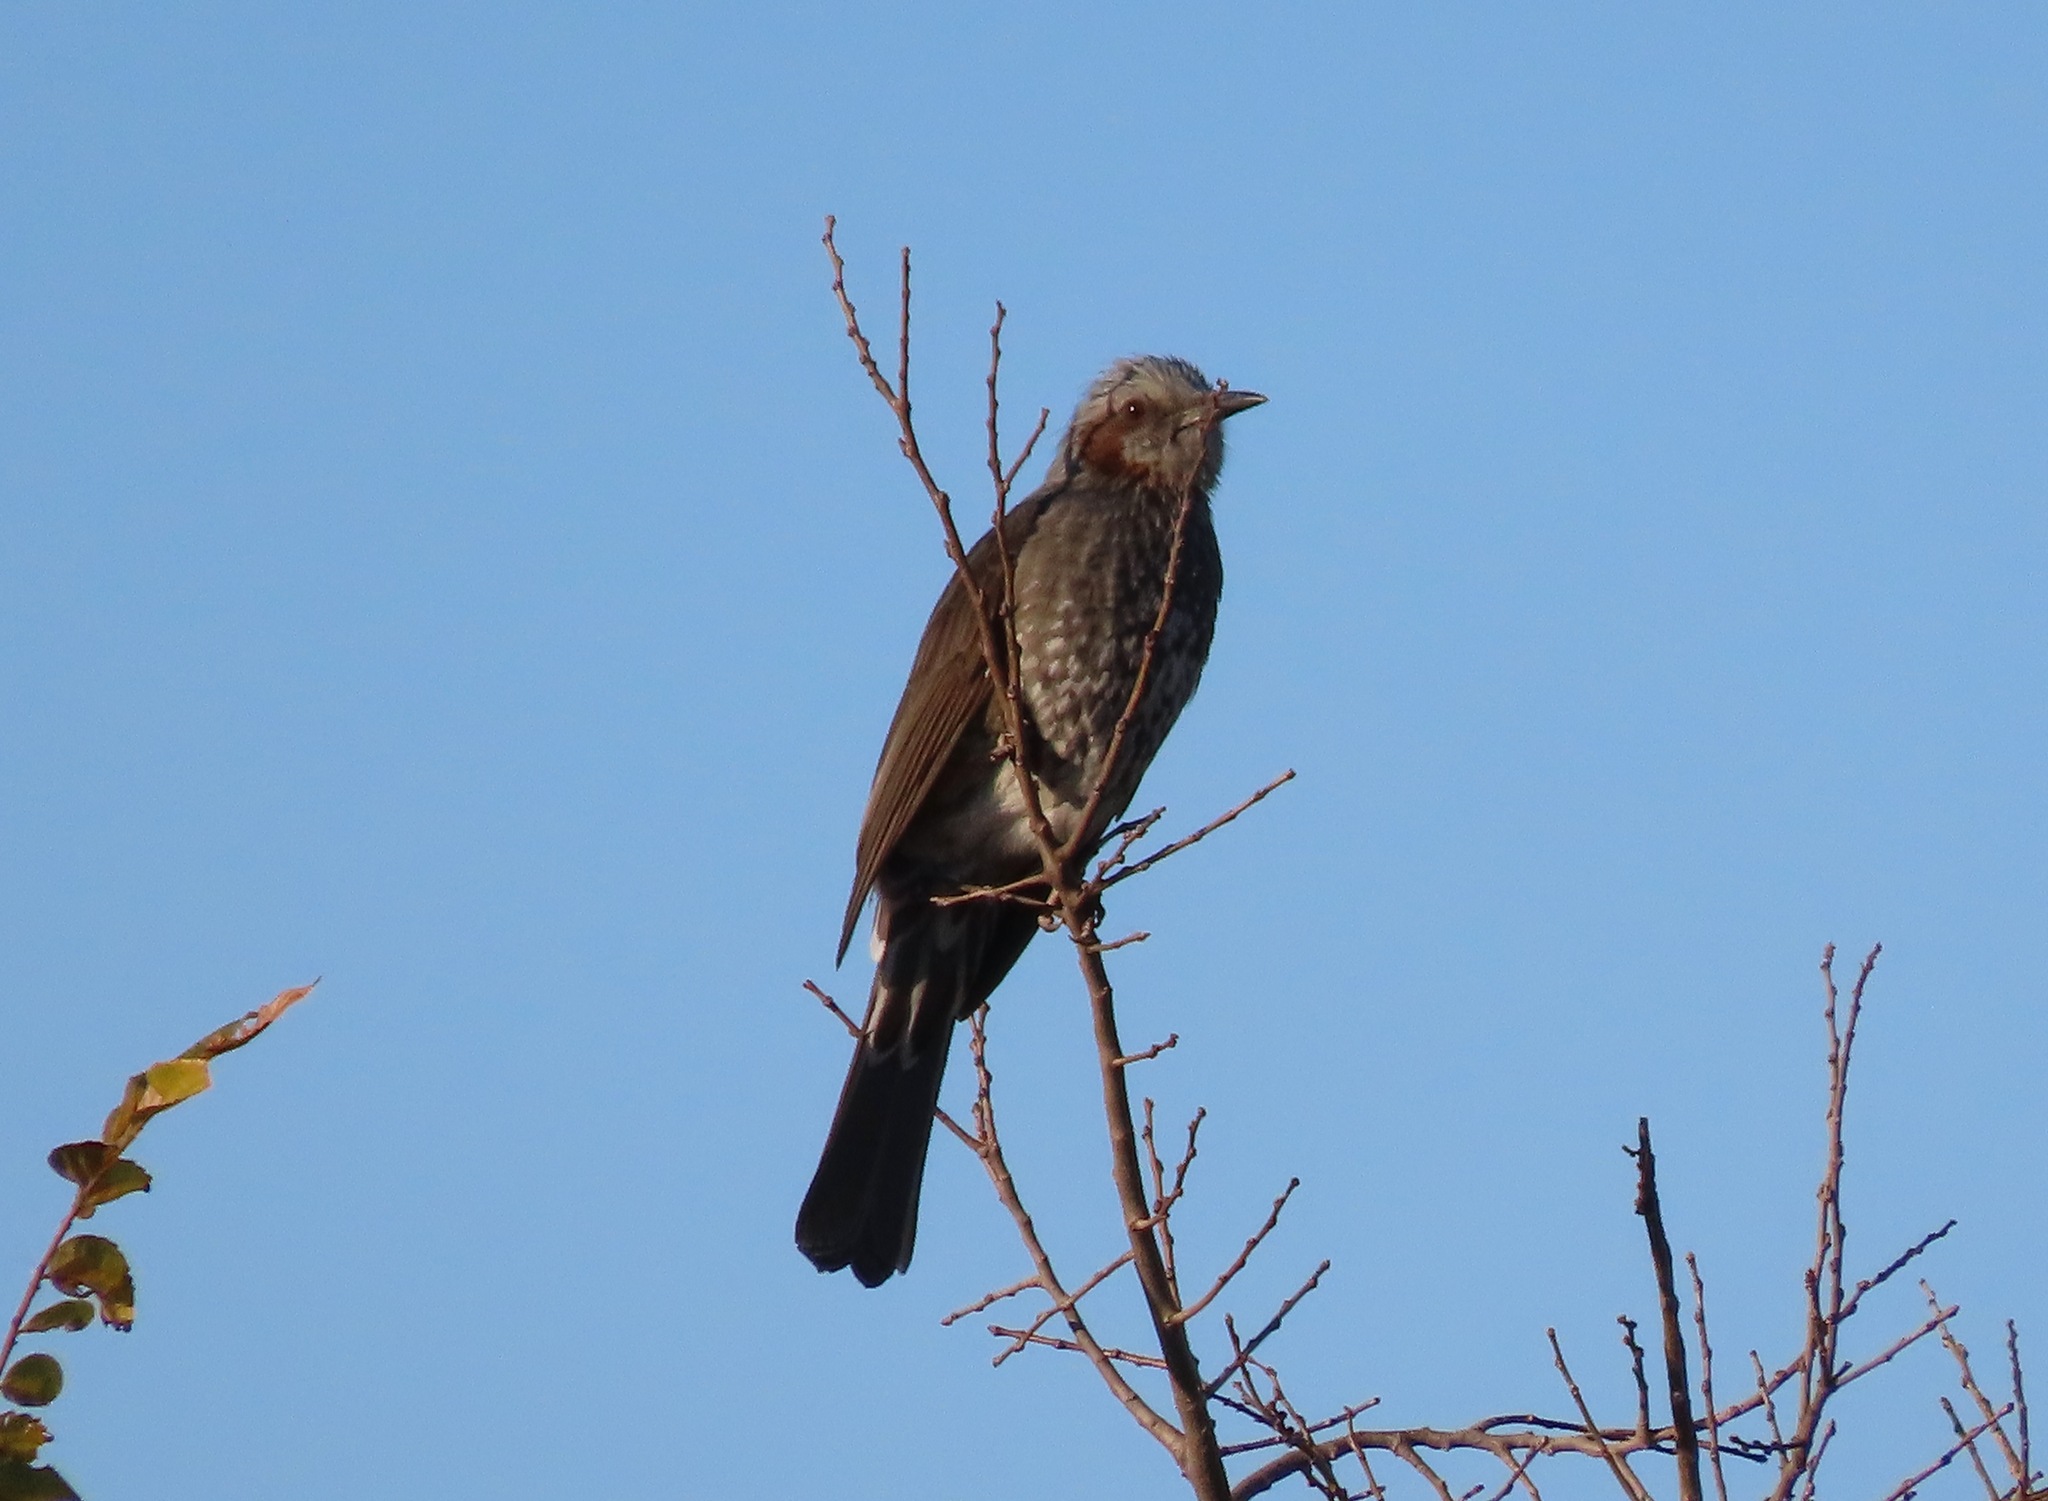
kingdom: Animalia
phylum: Chordata
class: Aves
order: Passeriformes
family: Pycnonotidae
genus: Hypsipetes
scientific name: Hypsipetes amaurotis
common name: Brown-eared bulbul
